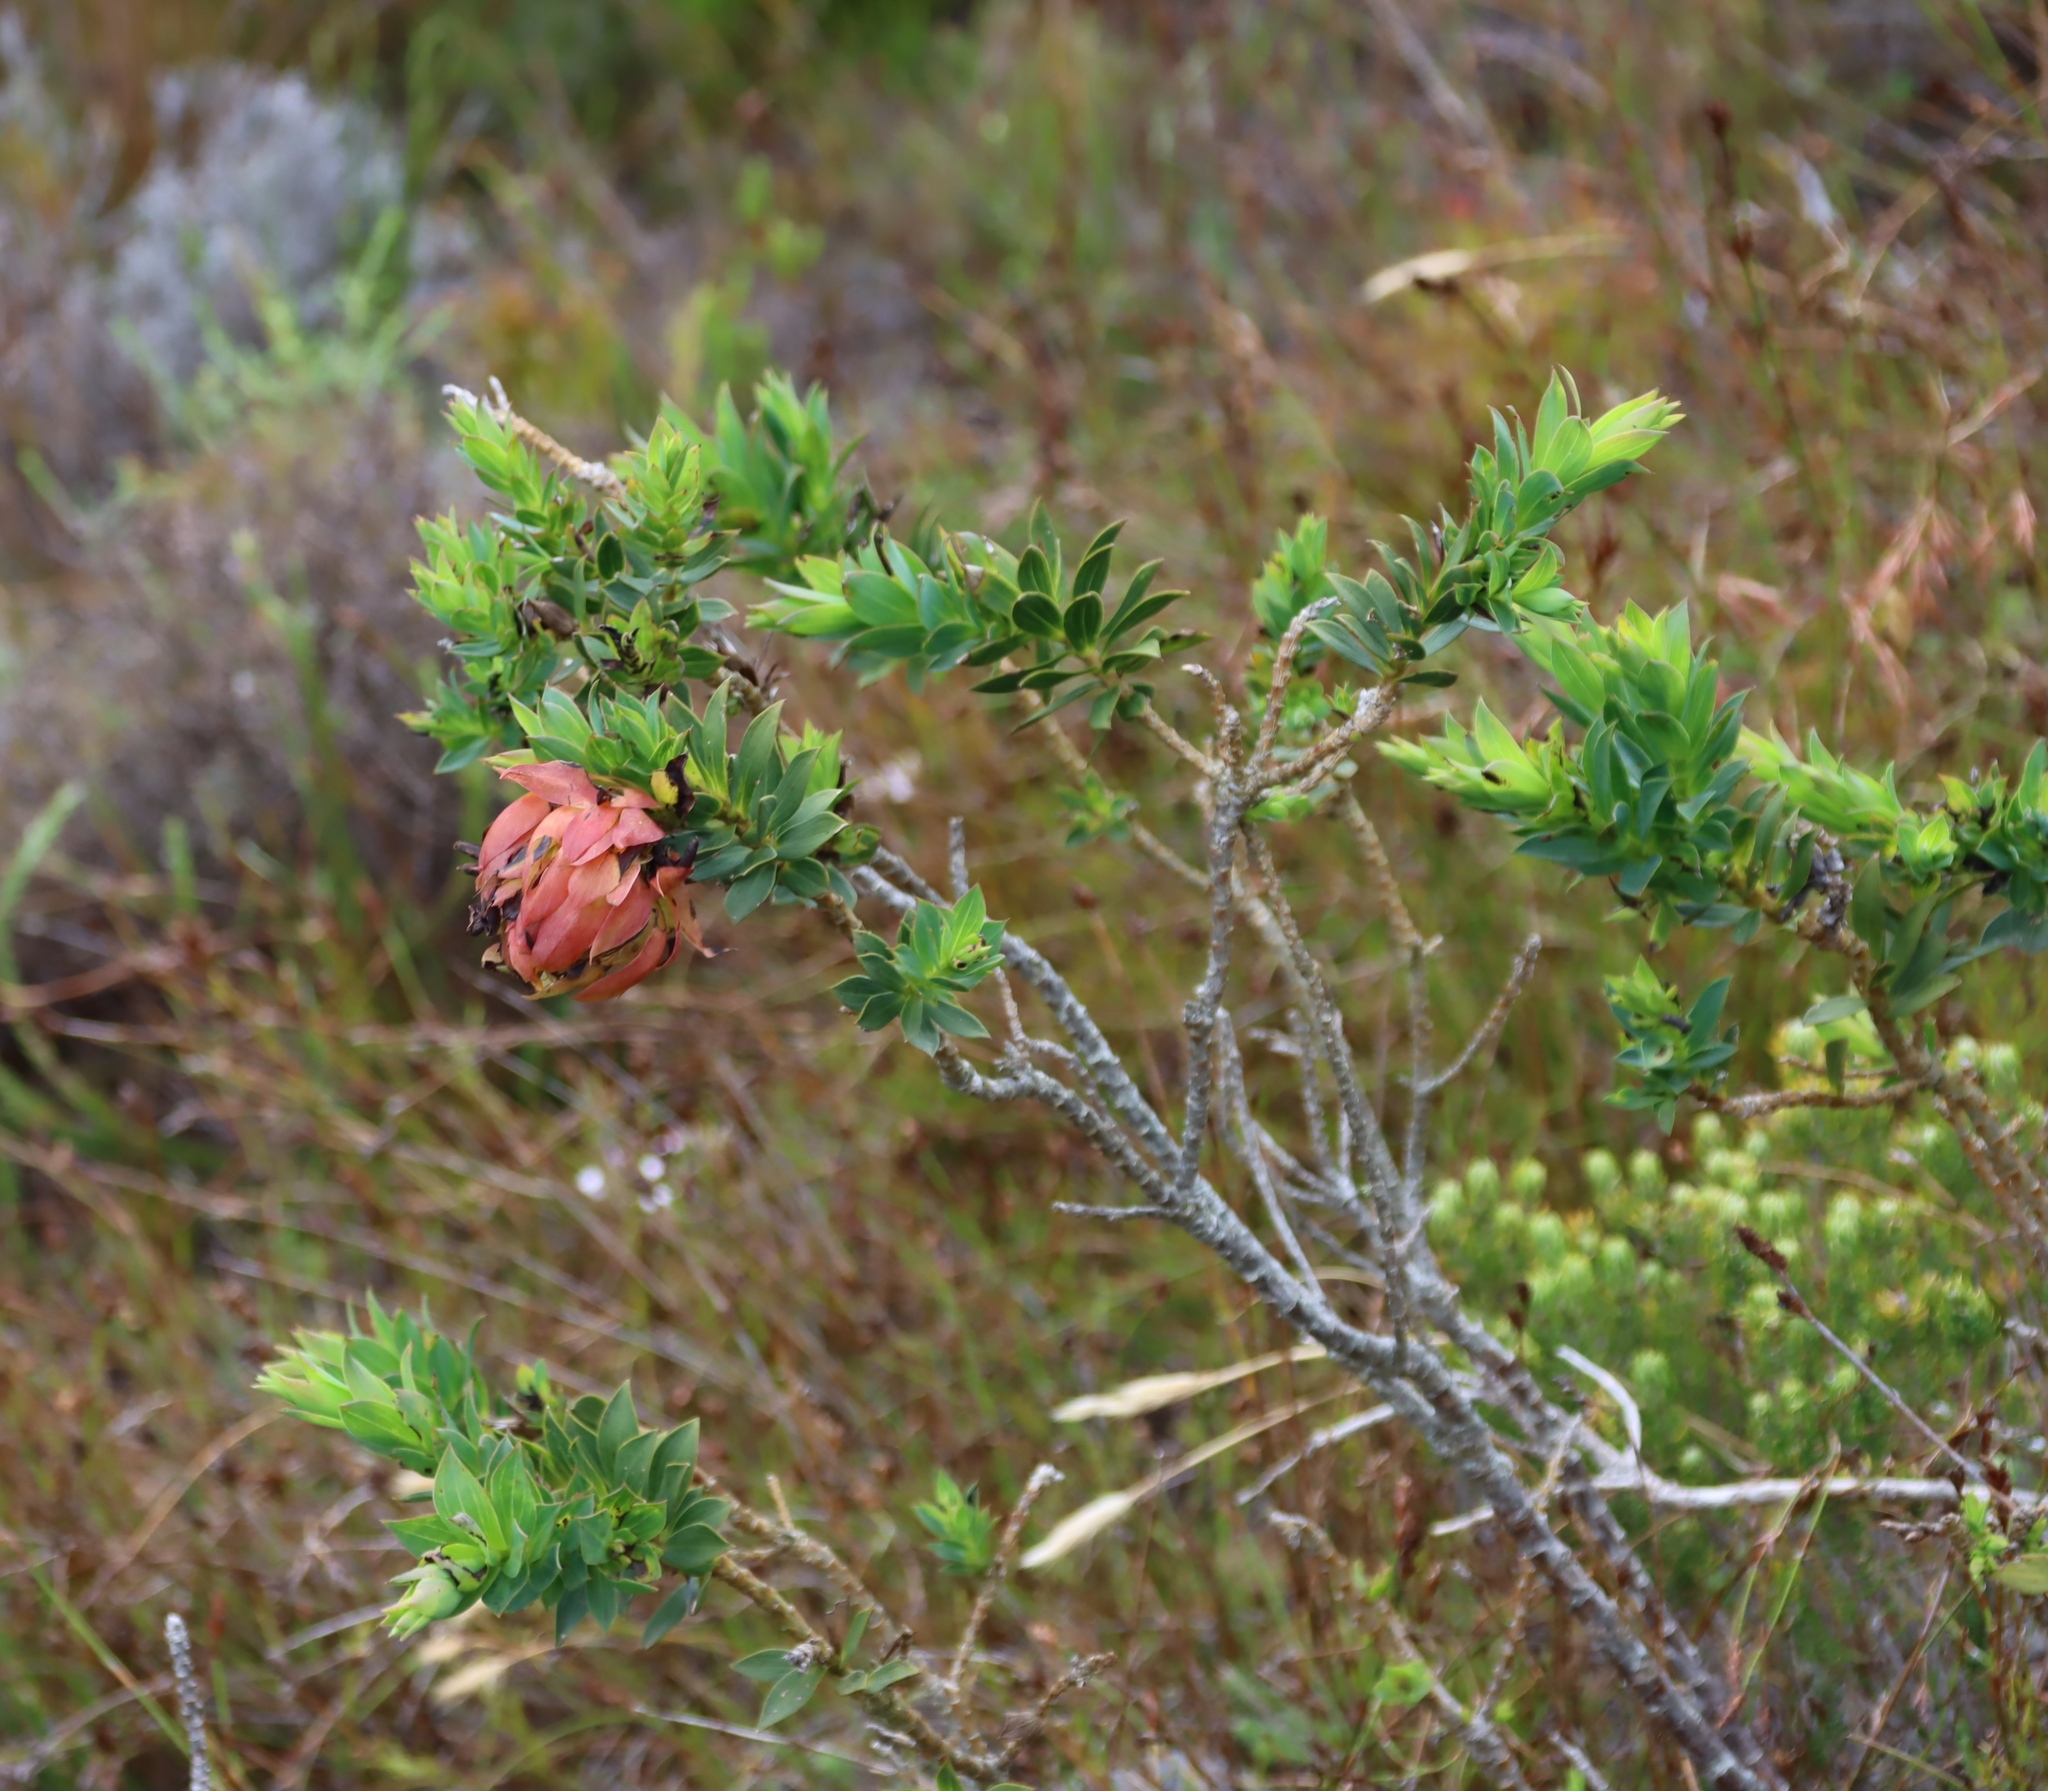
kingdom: Plantae
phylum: Tracheophyta
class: Magnoliopsida
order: Fabales
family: Fabaceae
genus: Liparia
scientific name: Liparia splendens
